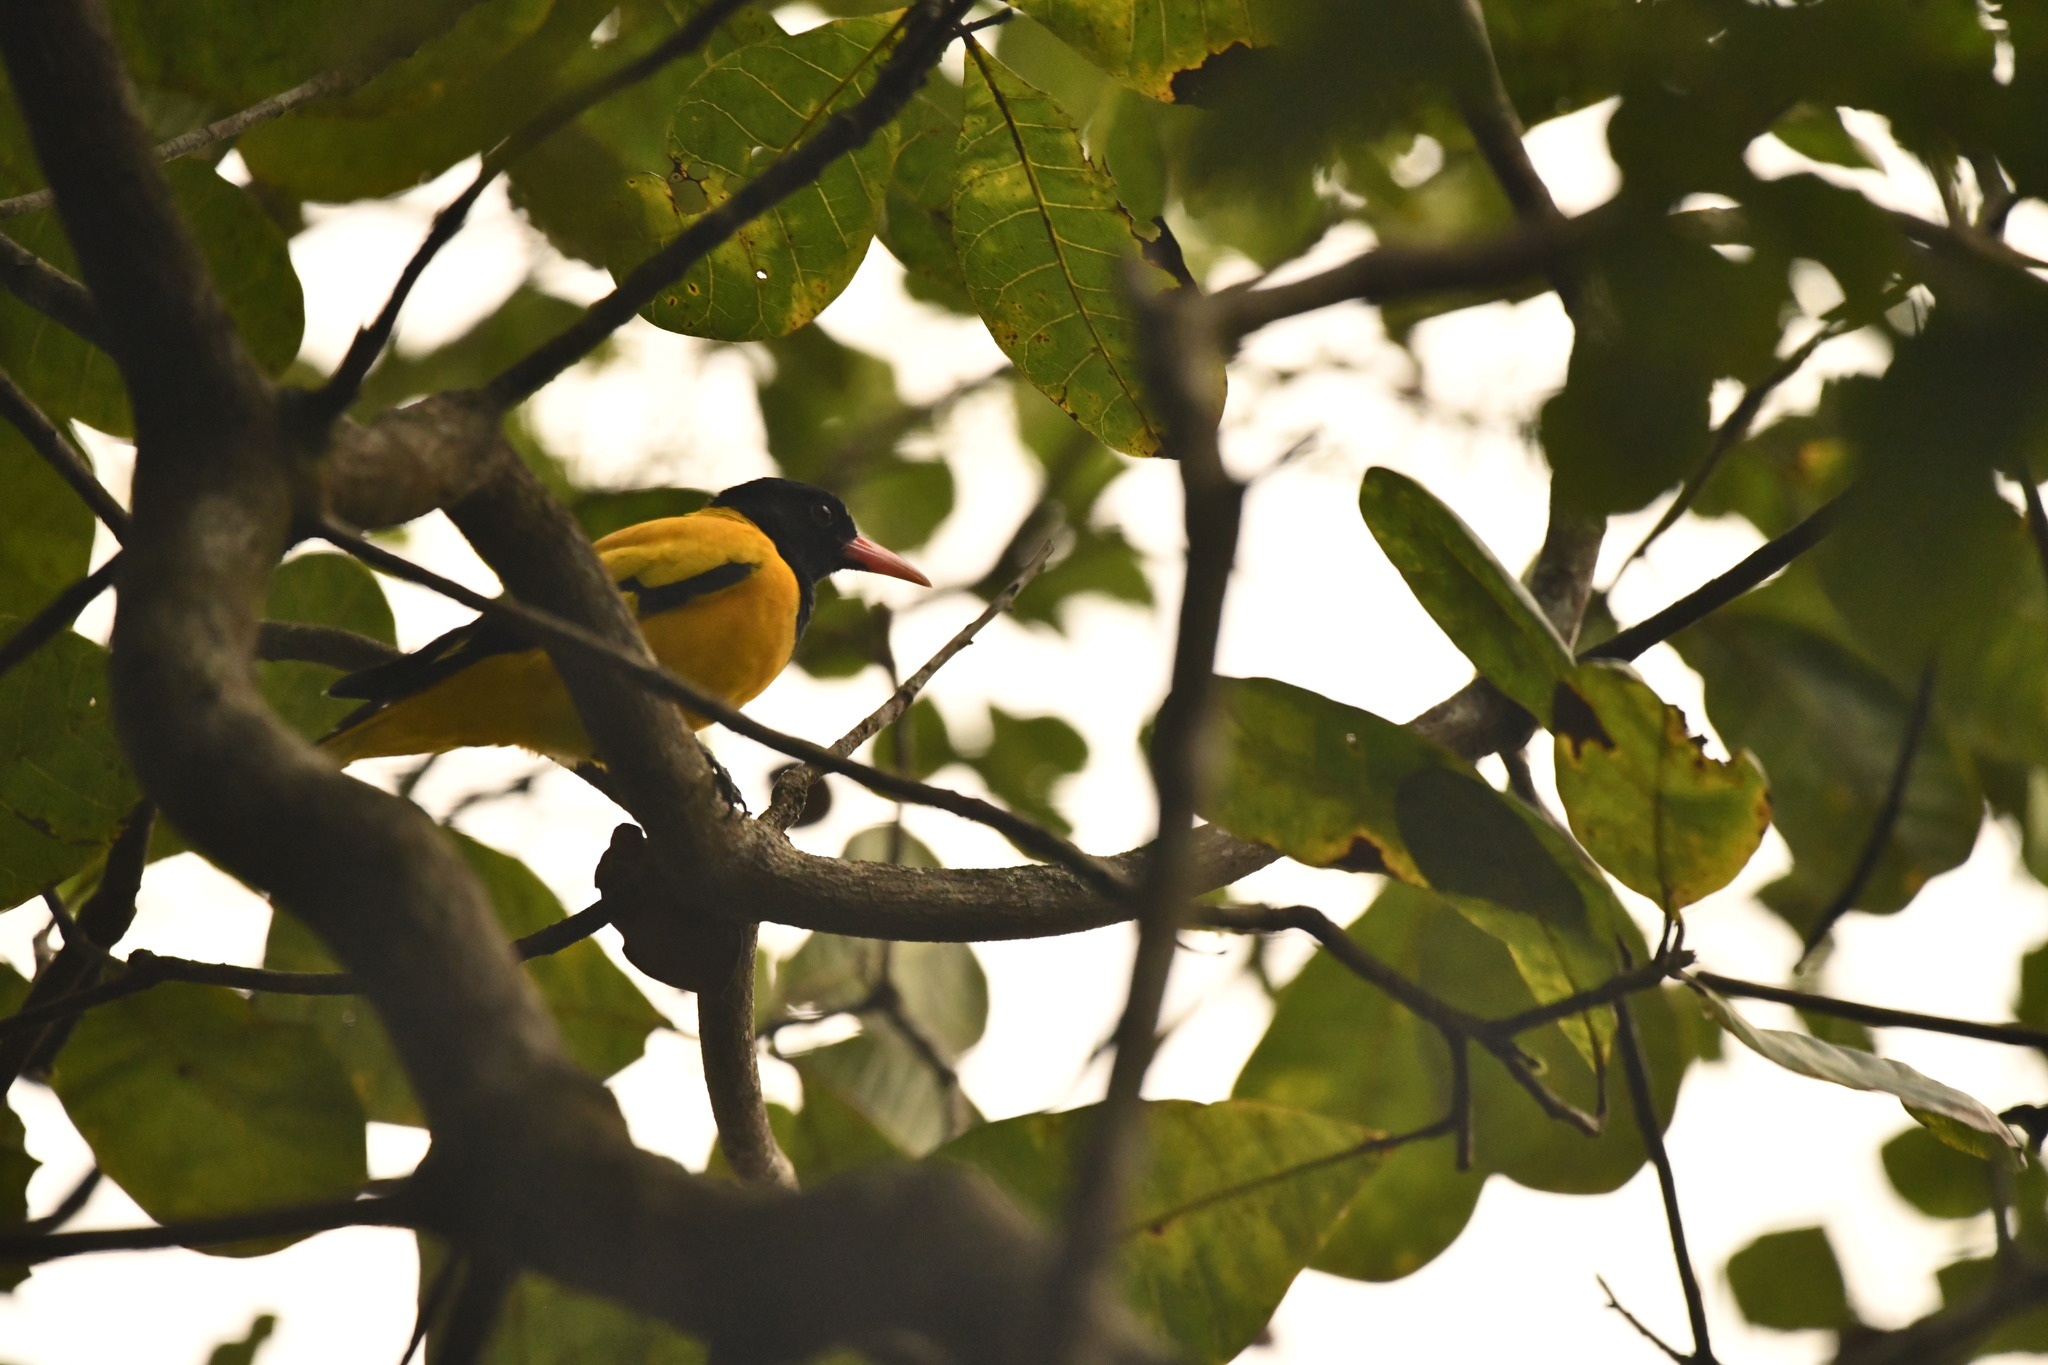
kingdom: Animalia
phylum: Chordata
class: Aves
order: Passeriformes
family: Oriolidae
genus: Oriolus
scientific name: Oriolus xanthornus
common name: Black-hooded oriole
